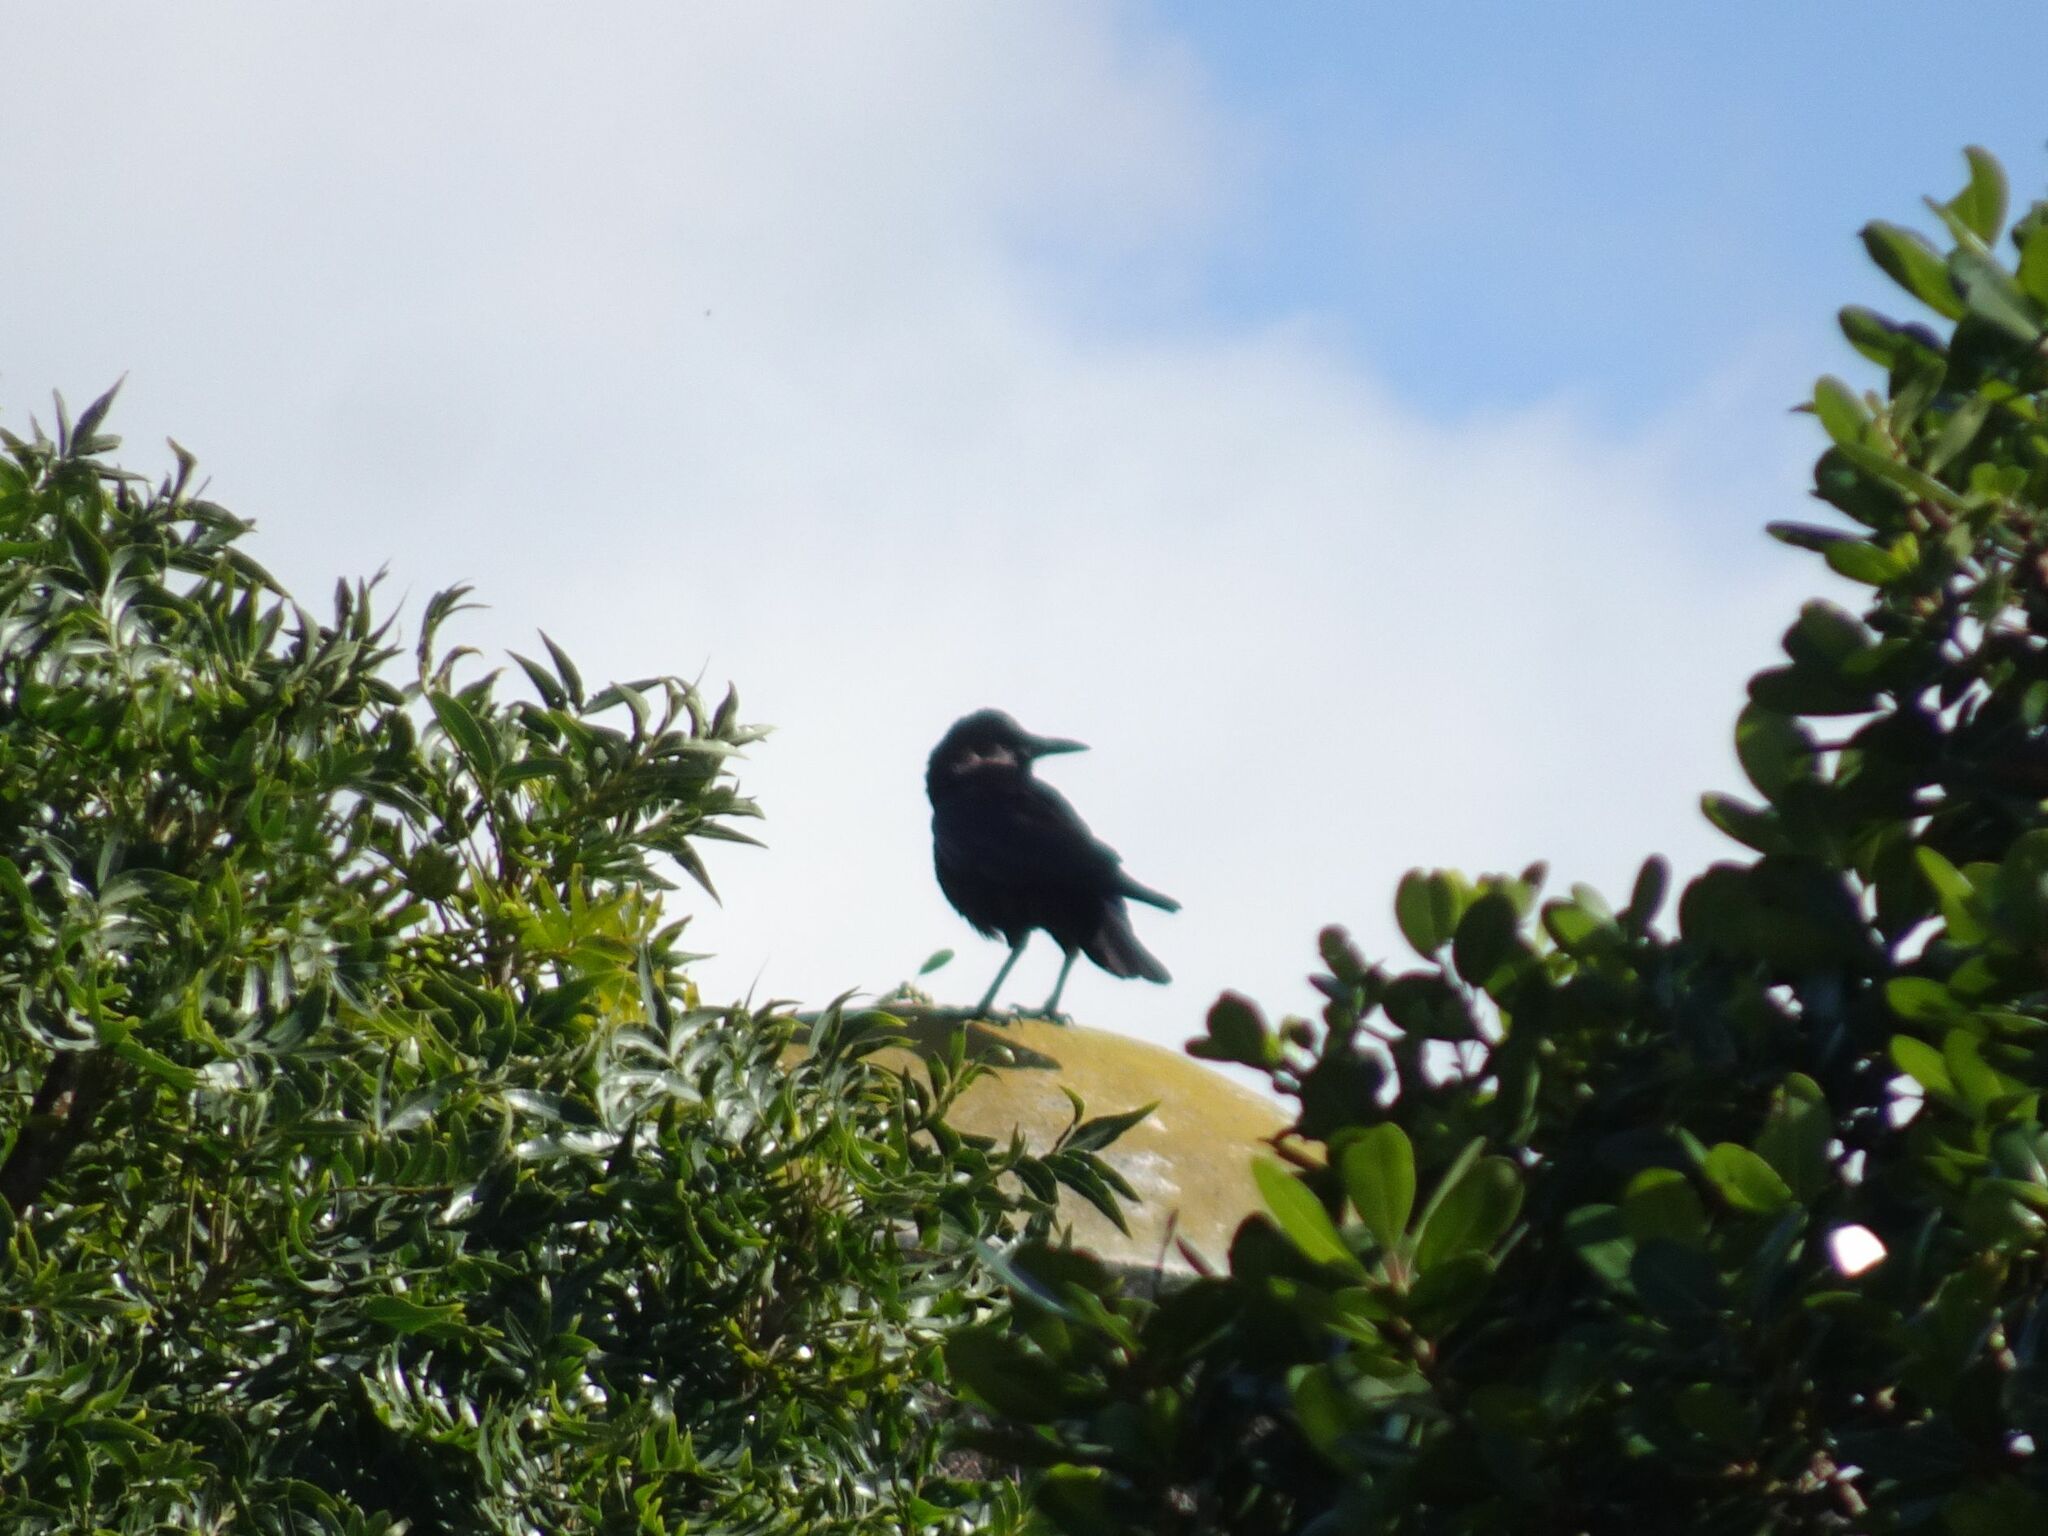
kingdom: Animalia
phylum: Chordata
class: Aves
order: Passeriformes
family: Corvidae
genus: Corvus
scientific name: Corvus capensis
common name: Cape crow
